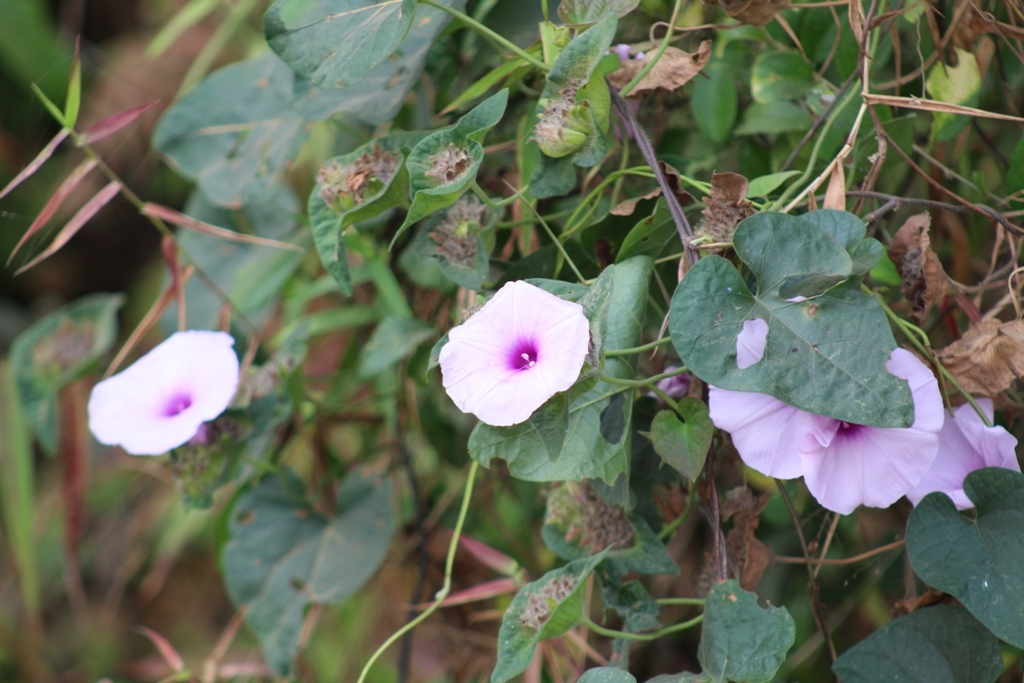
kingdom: Plantae
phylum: Tracheophyta
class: Magnoliopsida
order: Solanales
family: Convolvulaceae
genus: Ipomoea
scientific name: Ipomoea involucrata
